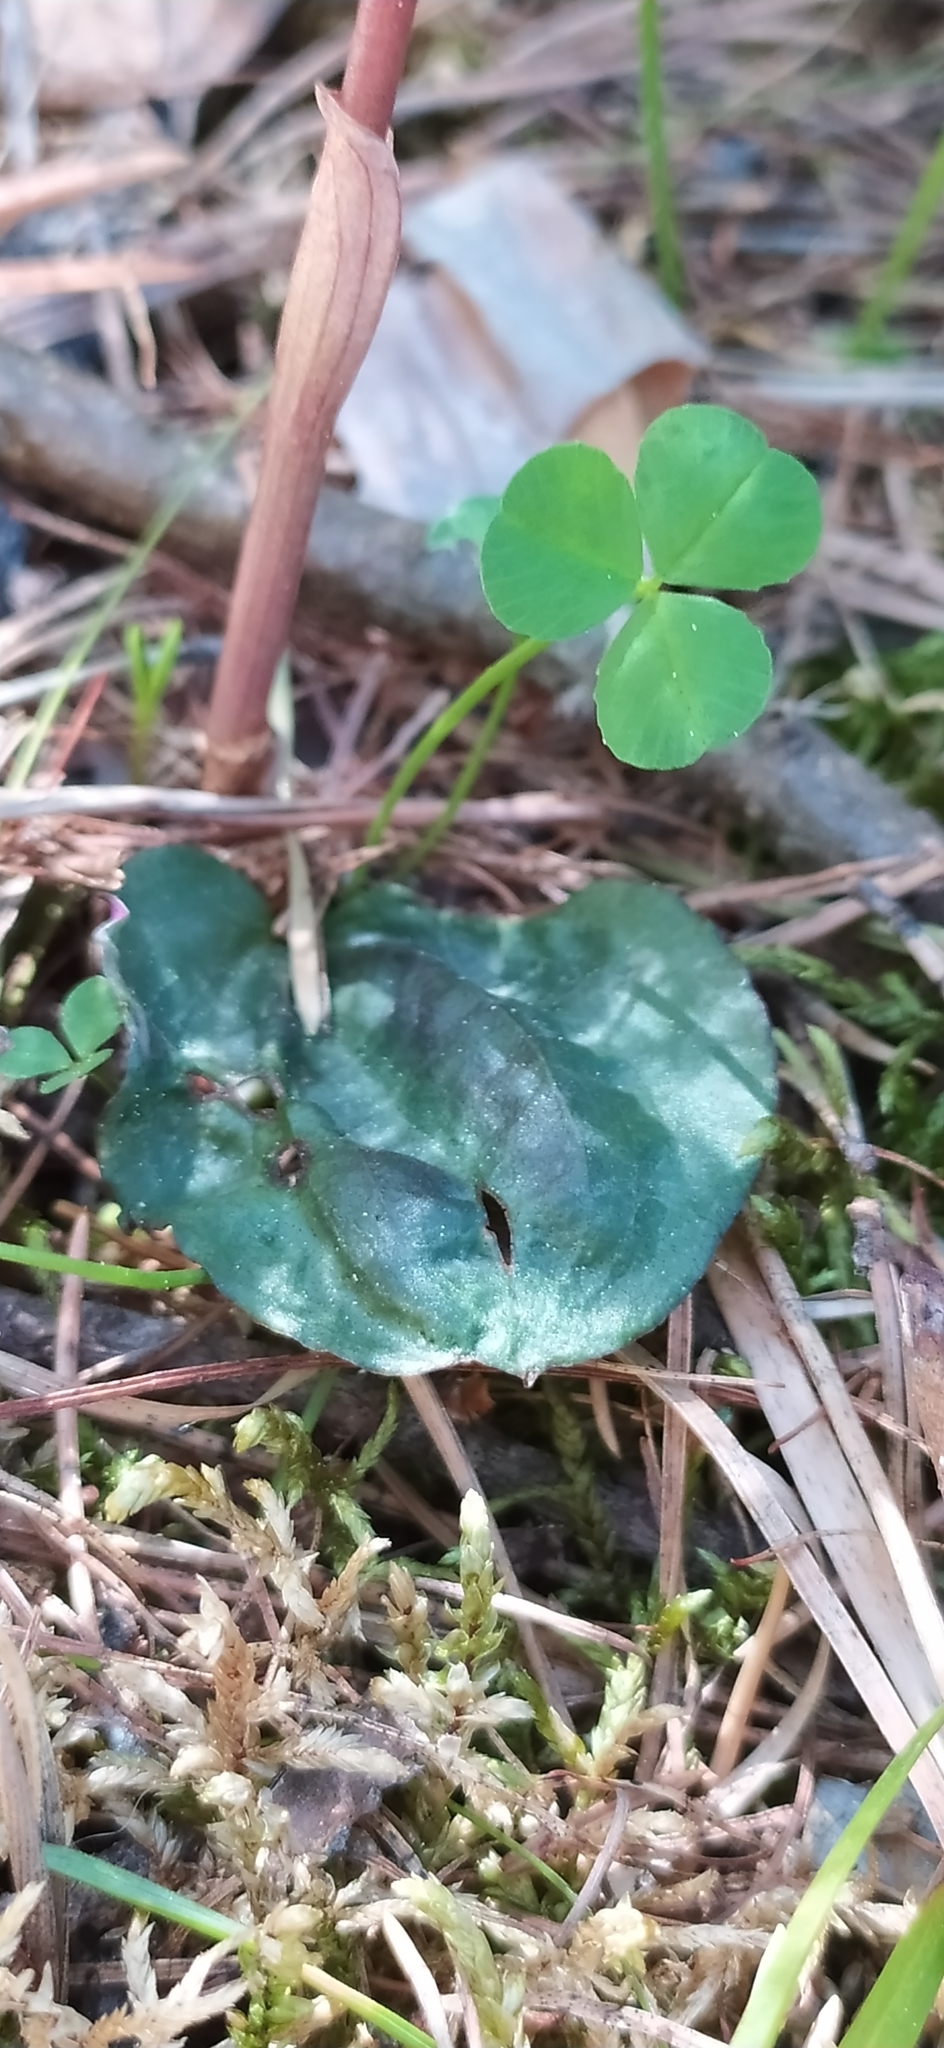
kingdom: Plantae
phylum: Tracheophyta
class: Liliopsida
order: Asparagales
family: Orchidaceae
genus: Calypso
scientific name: Calypso bulbosa
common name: Calypso
